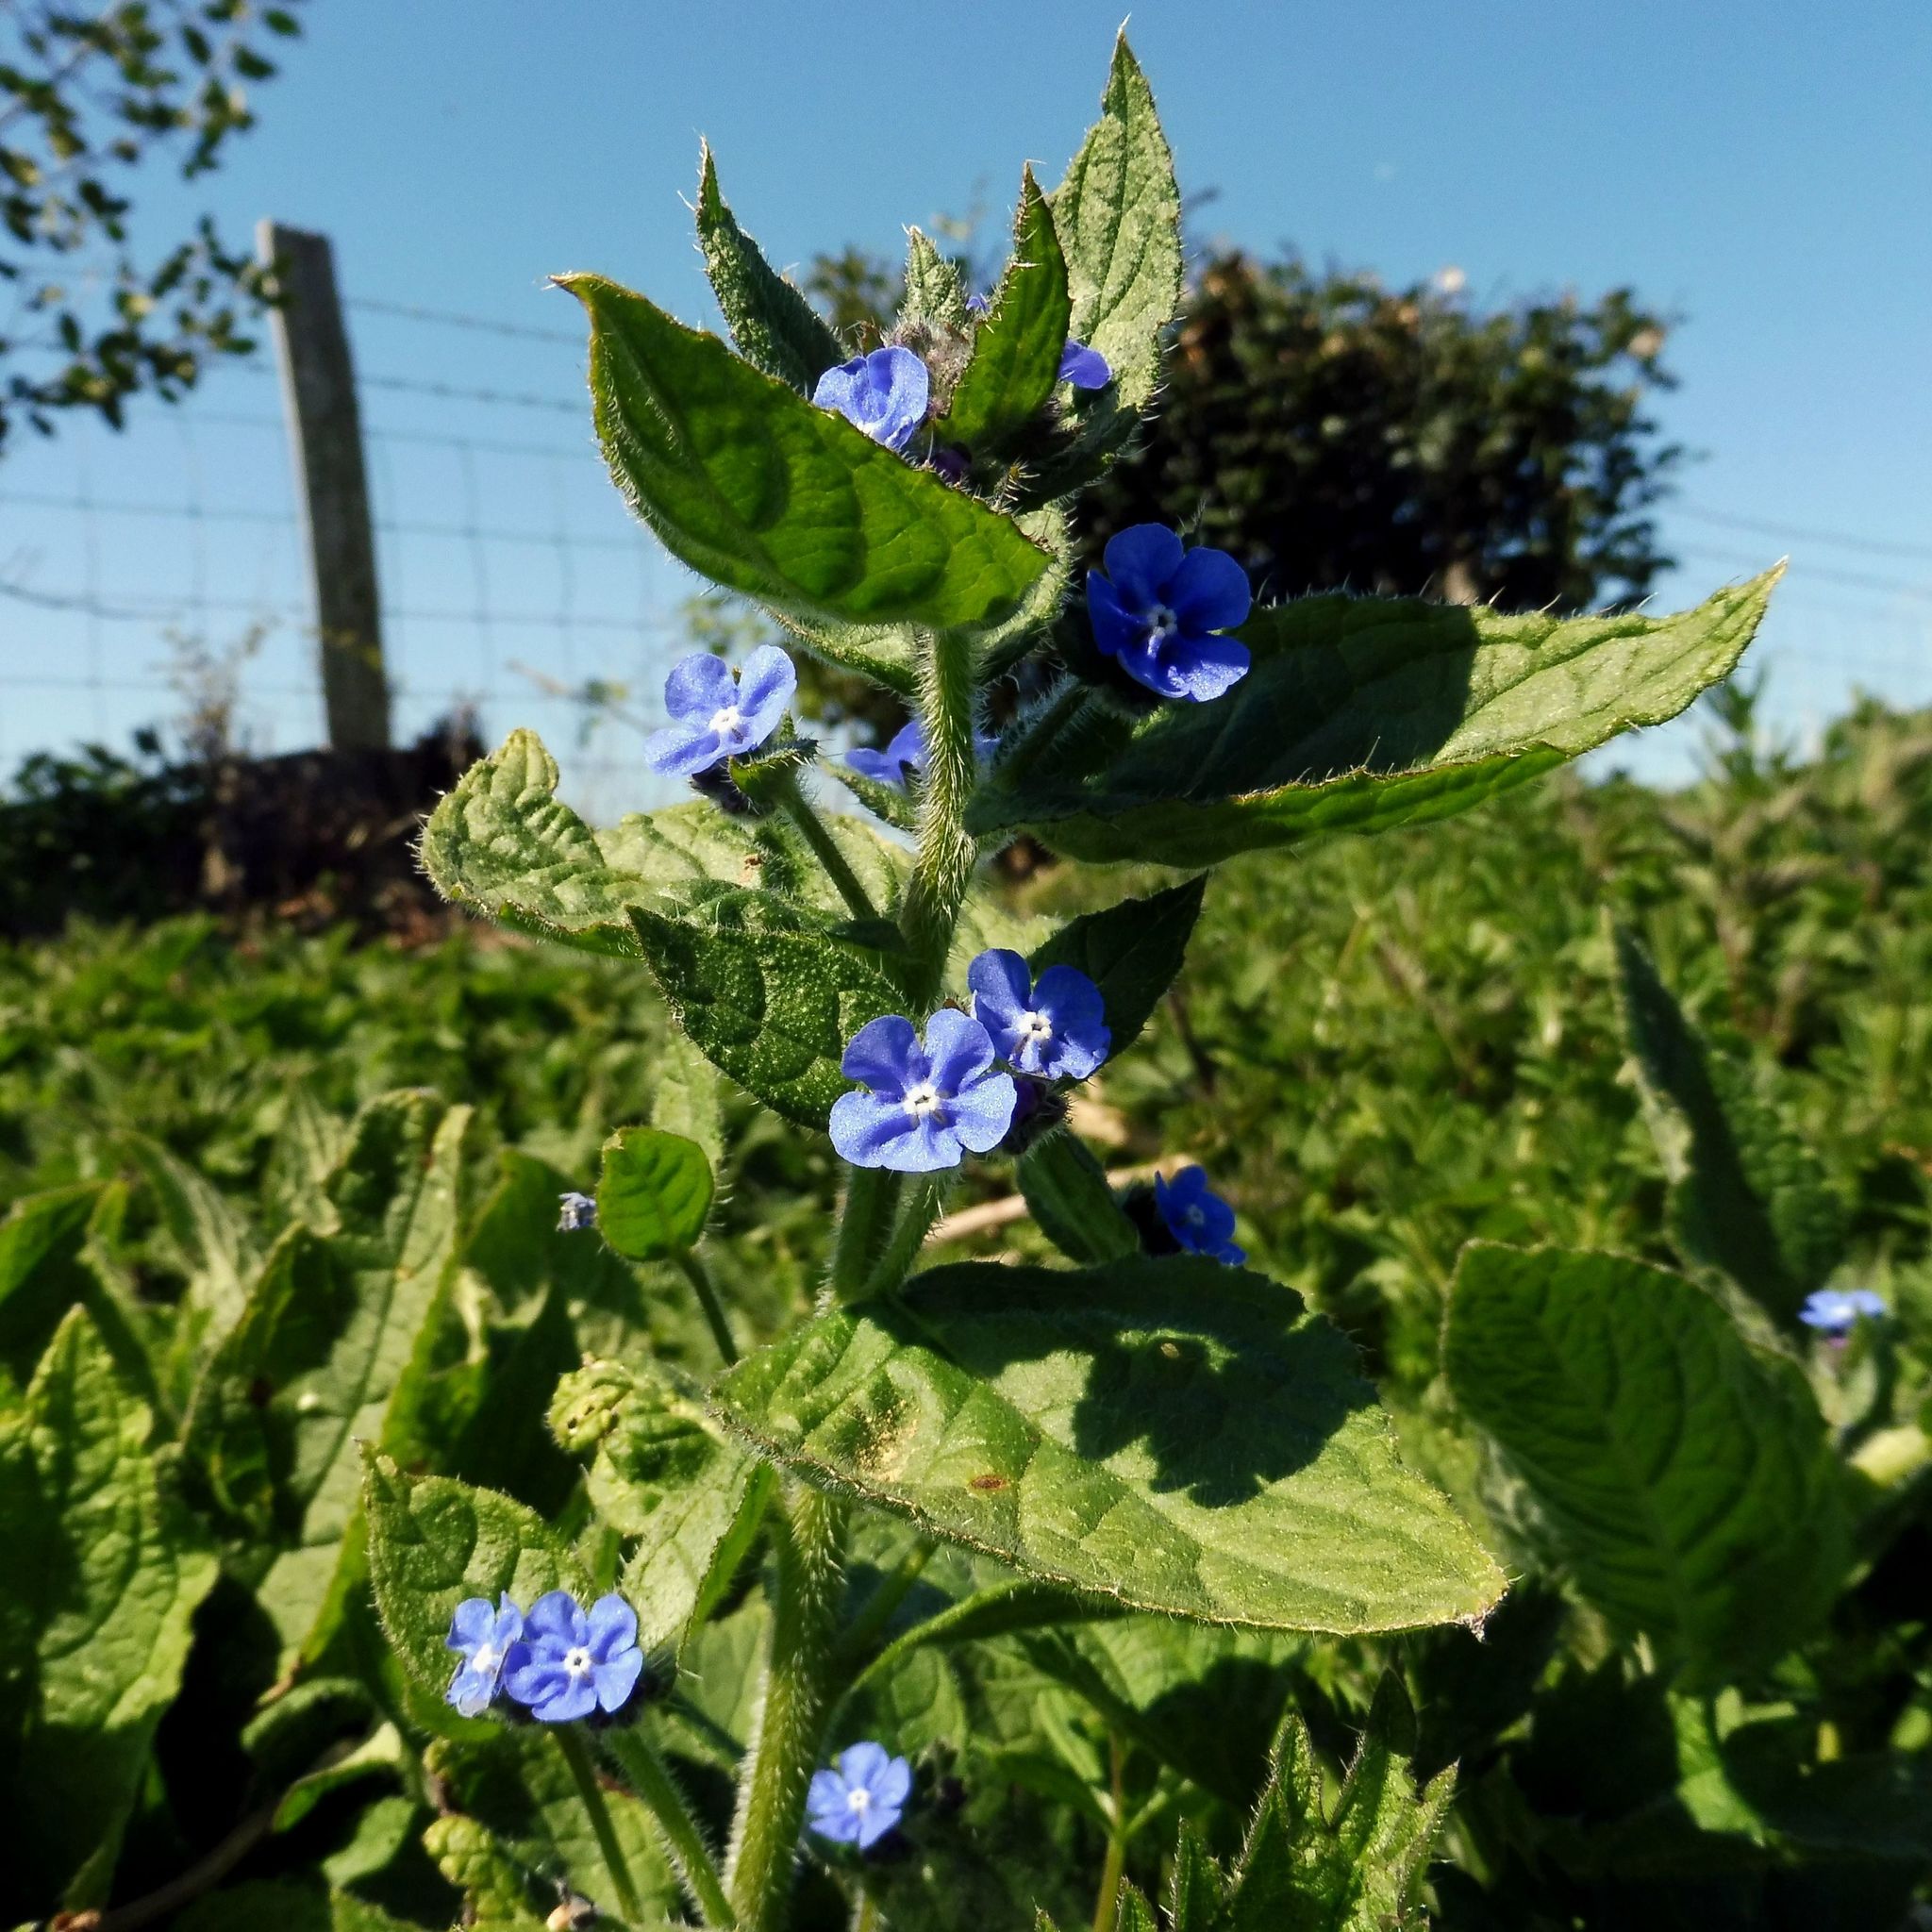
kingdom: Plantae
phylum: Tracheophyta
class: Magnoliopsida
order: Boraginales
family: Boraginaceae
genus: Pentaglottis
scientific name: Pentaglottis sempervirens
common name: Green alkanet
